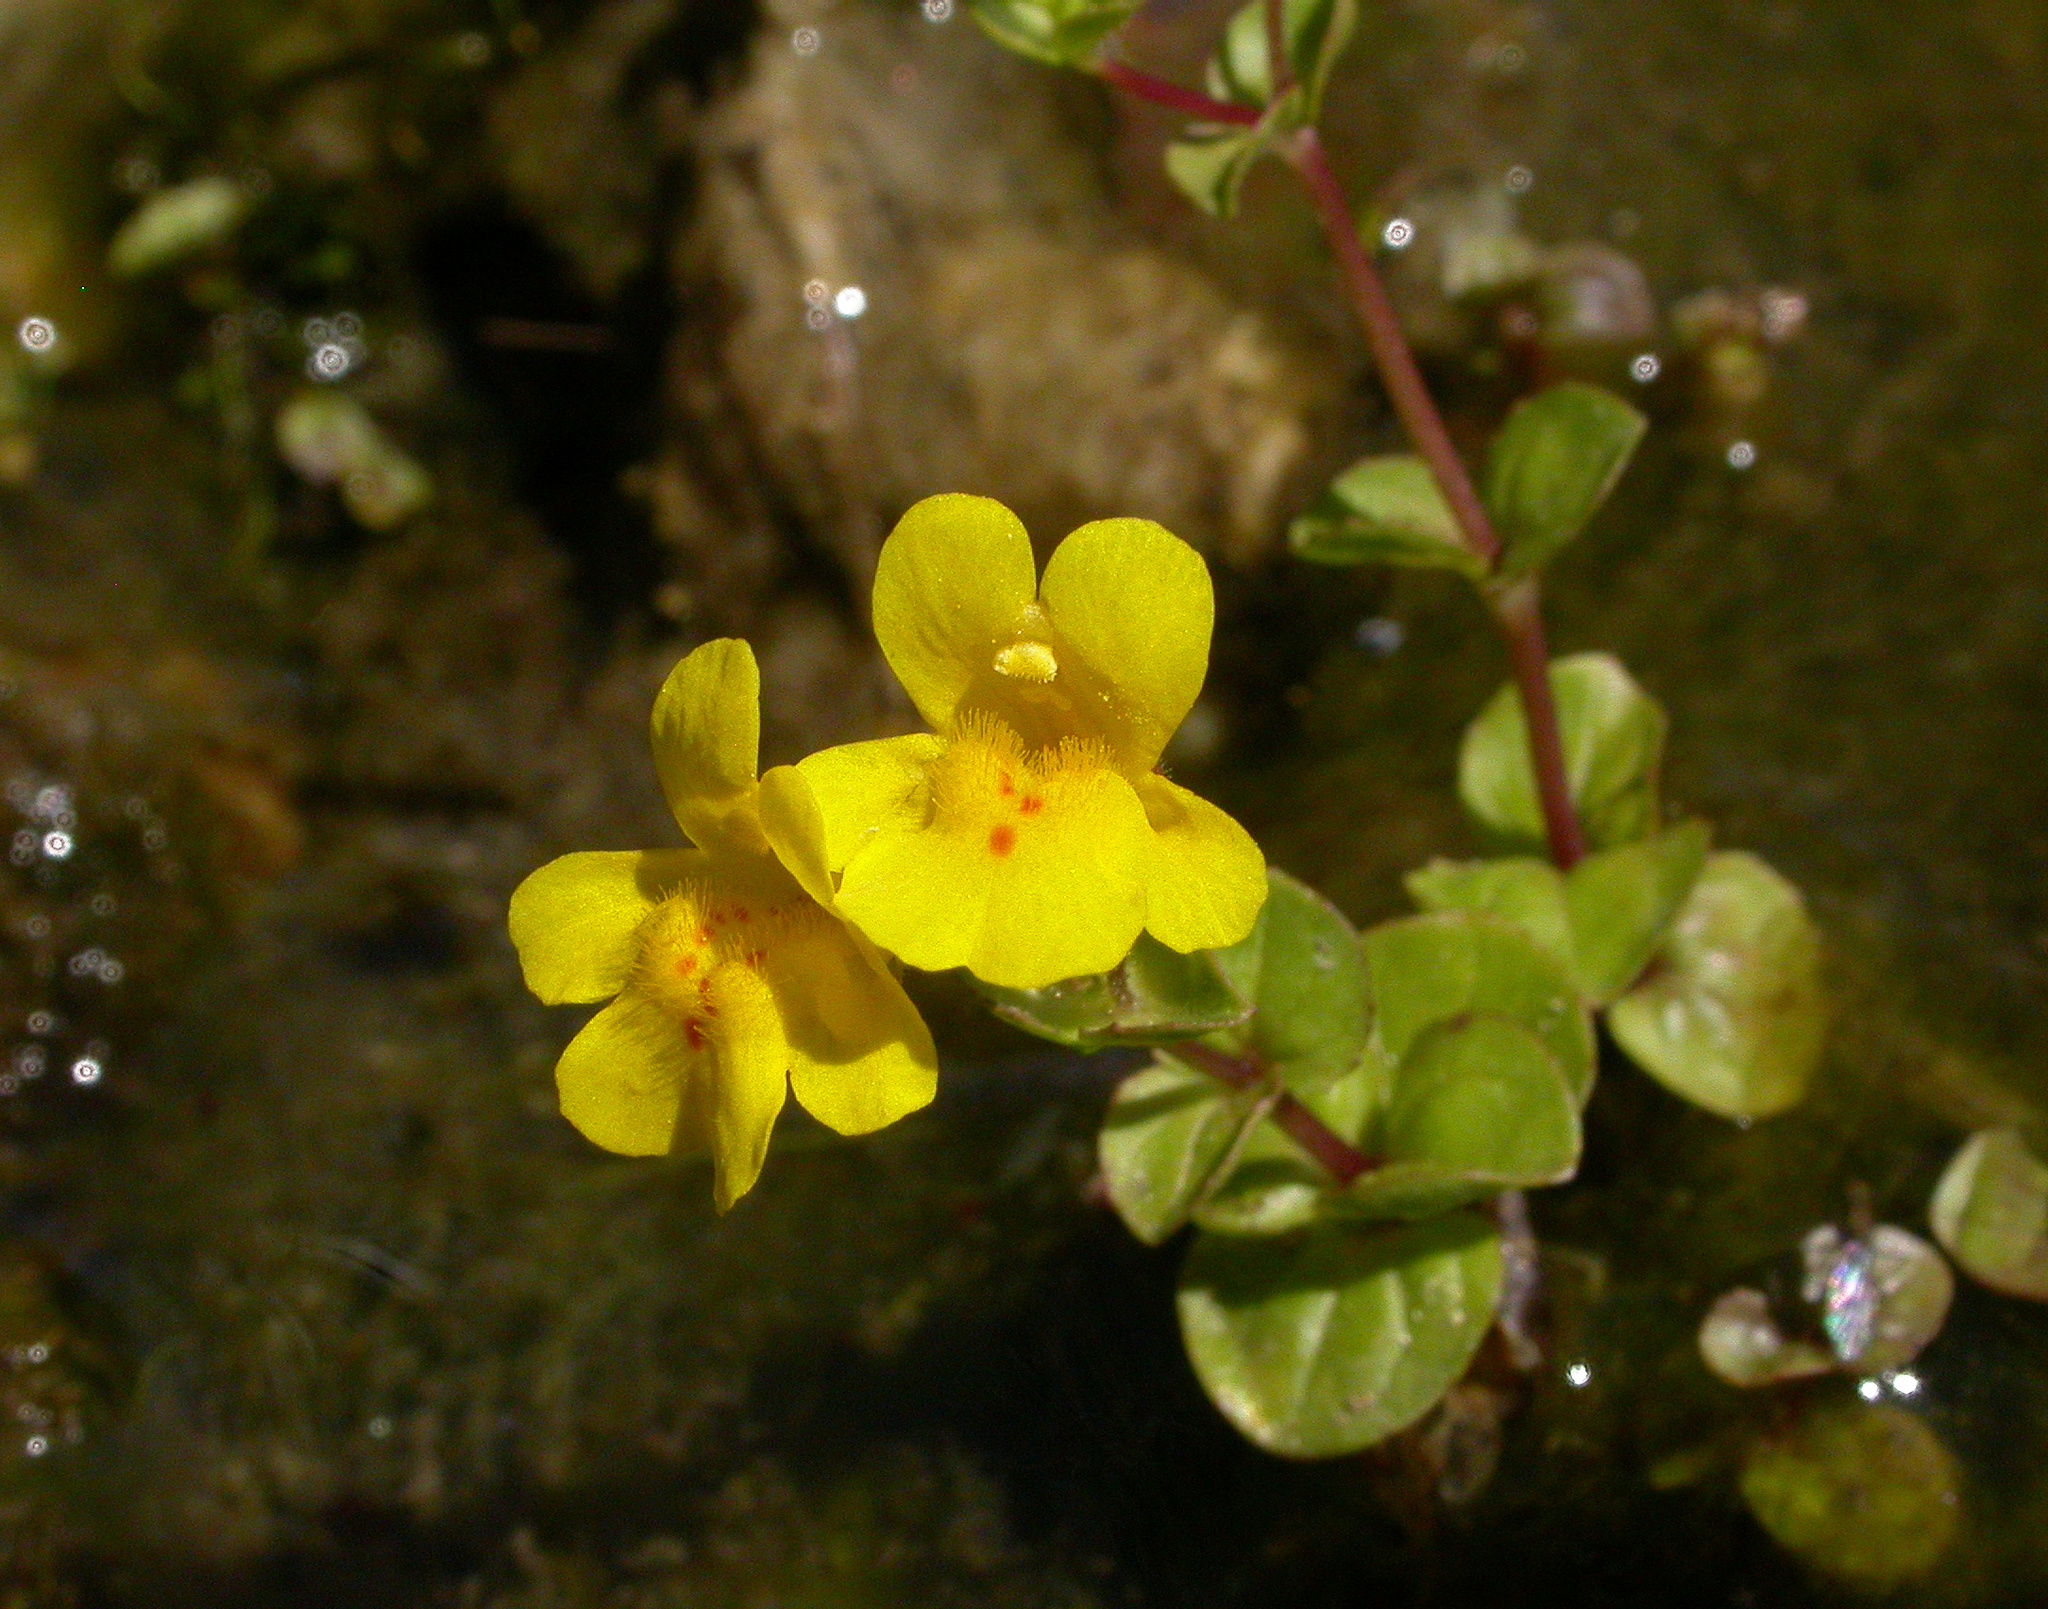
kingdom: Plantae
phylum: Tracheophyta
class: Magnoliopsida
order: Lamiales
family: Phrymaceae
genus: Erythranthe
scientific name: Erythranthe guttata
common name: Monkeyflower
